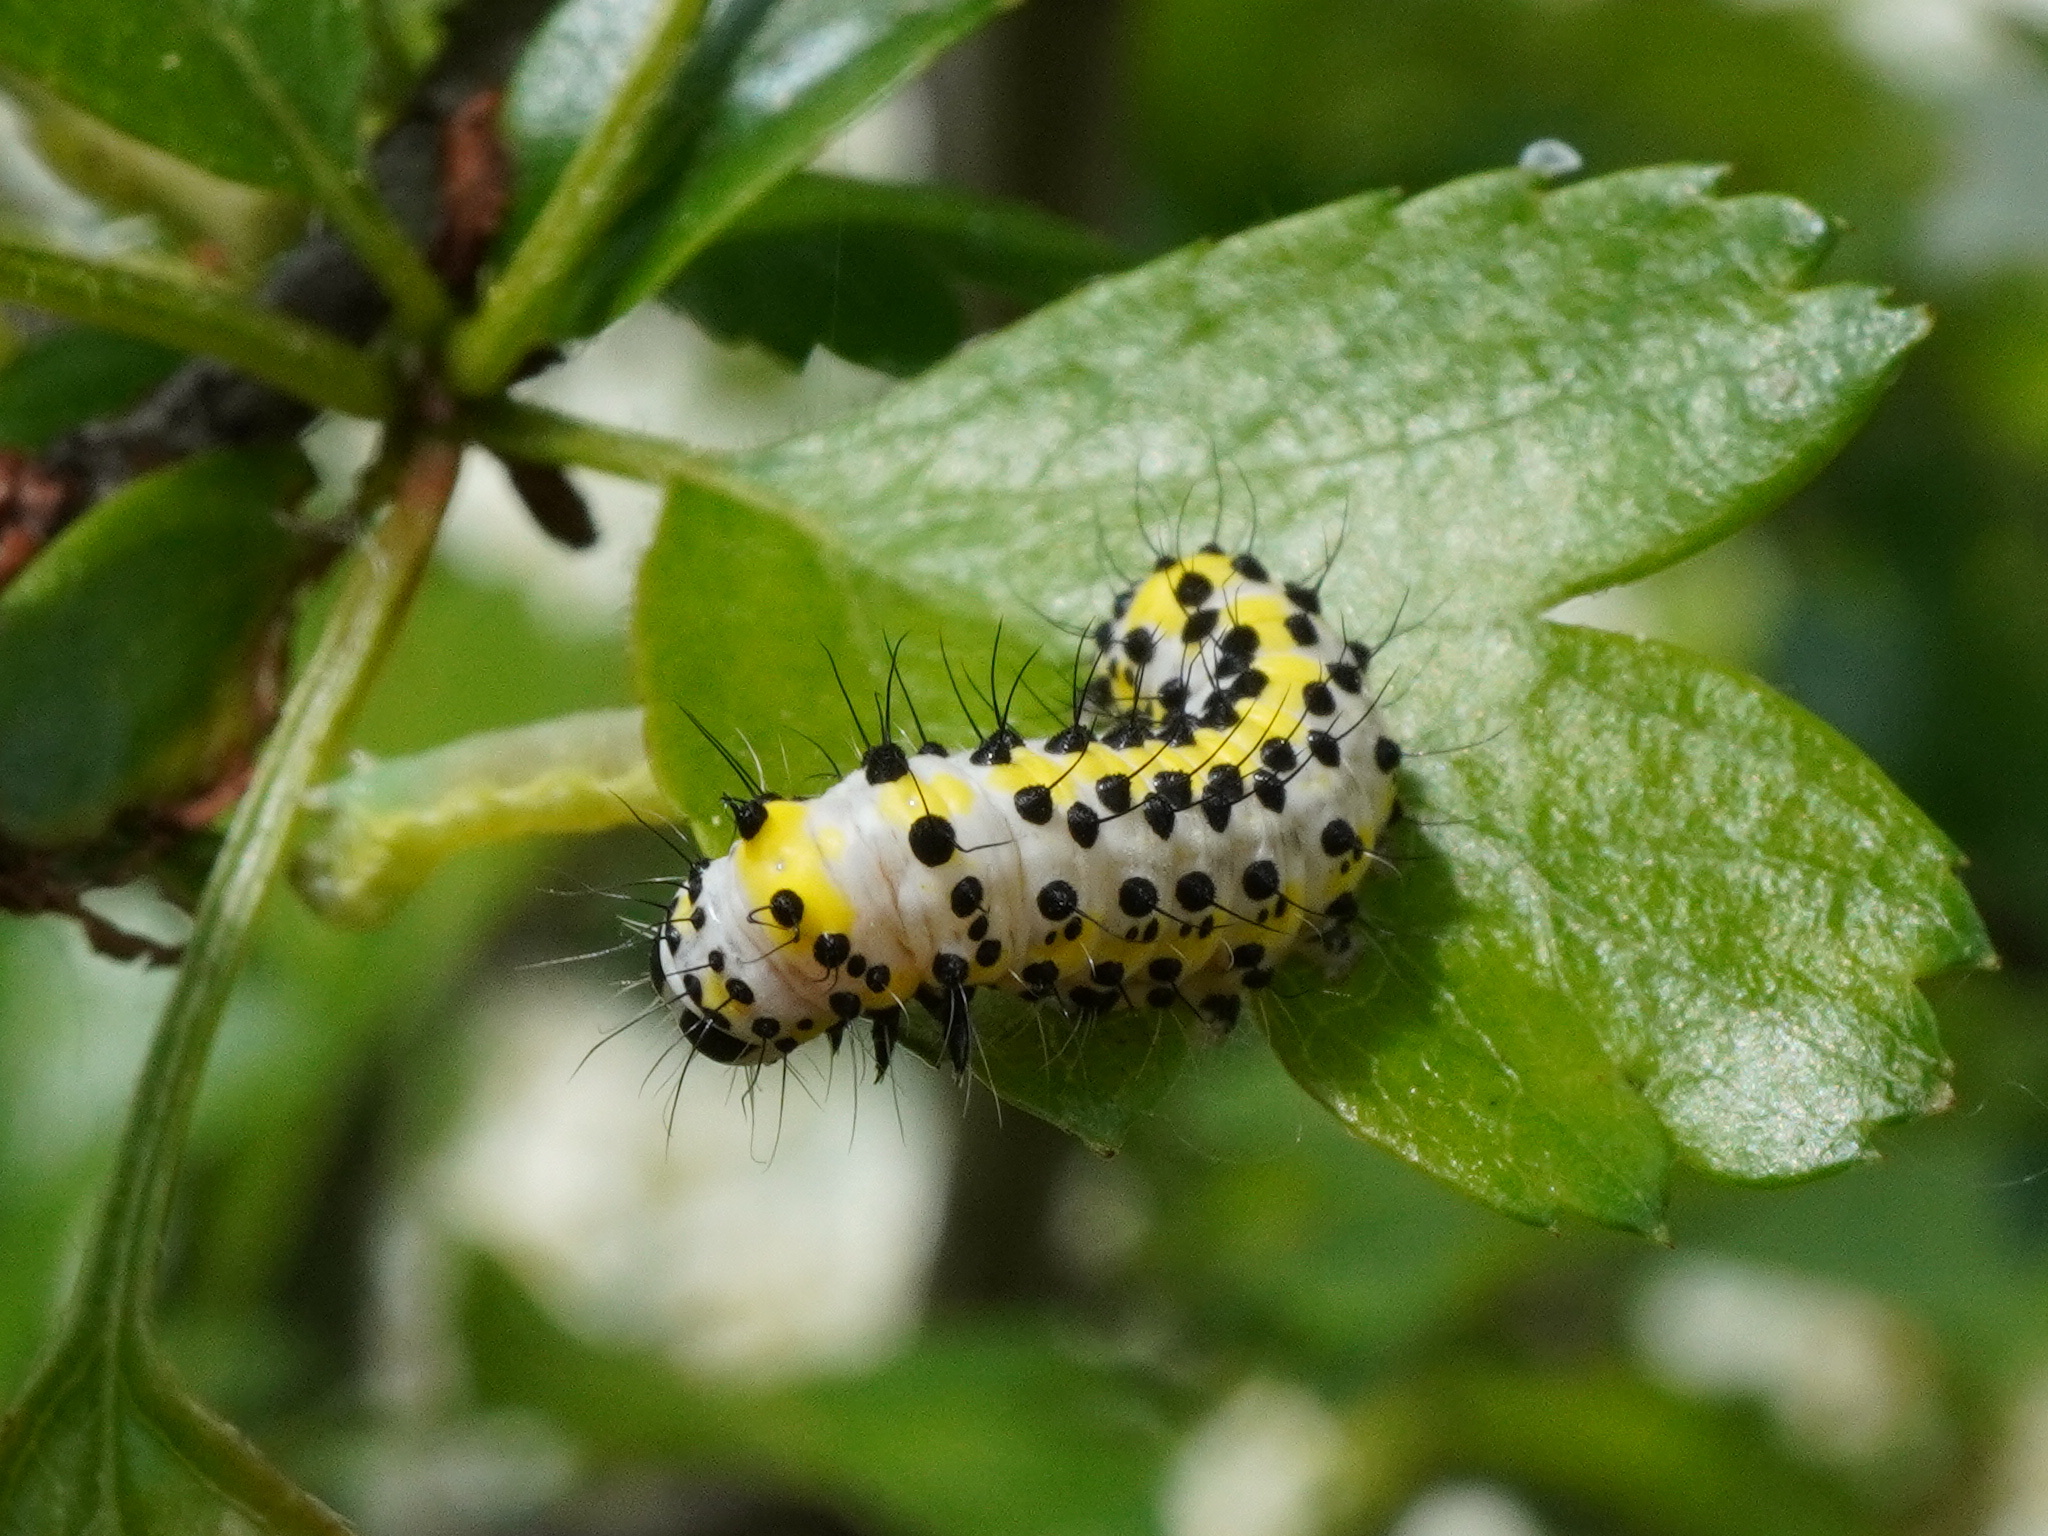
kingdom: Animalia
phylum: Arthropoda
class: Insecta
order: Lepidoptera
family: Noctuidae
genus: Diloba
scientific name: Diloba caeruleocephala
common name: Figure of eight
